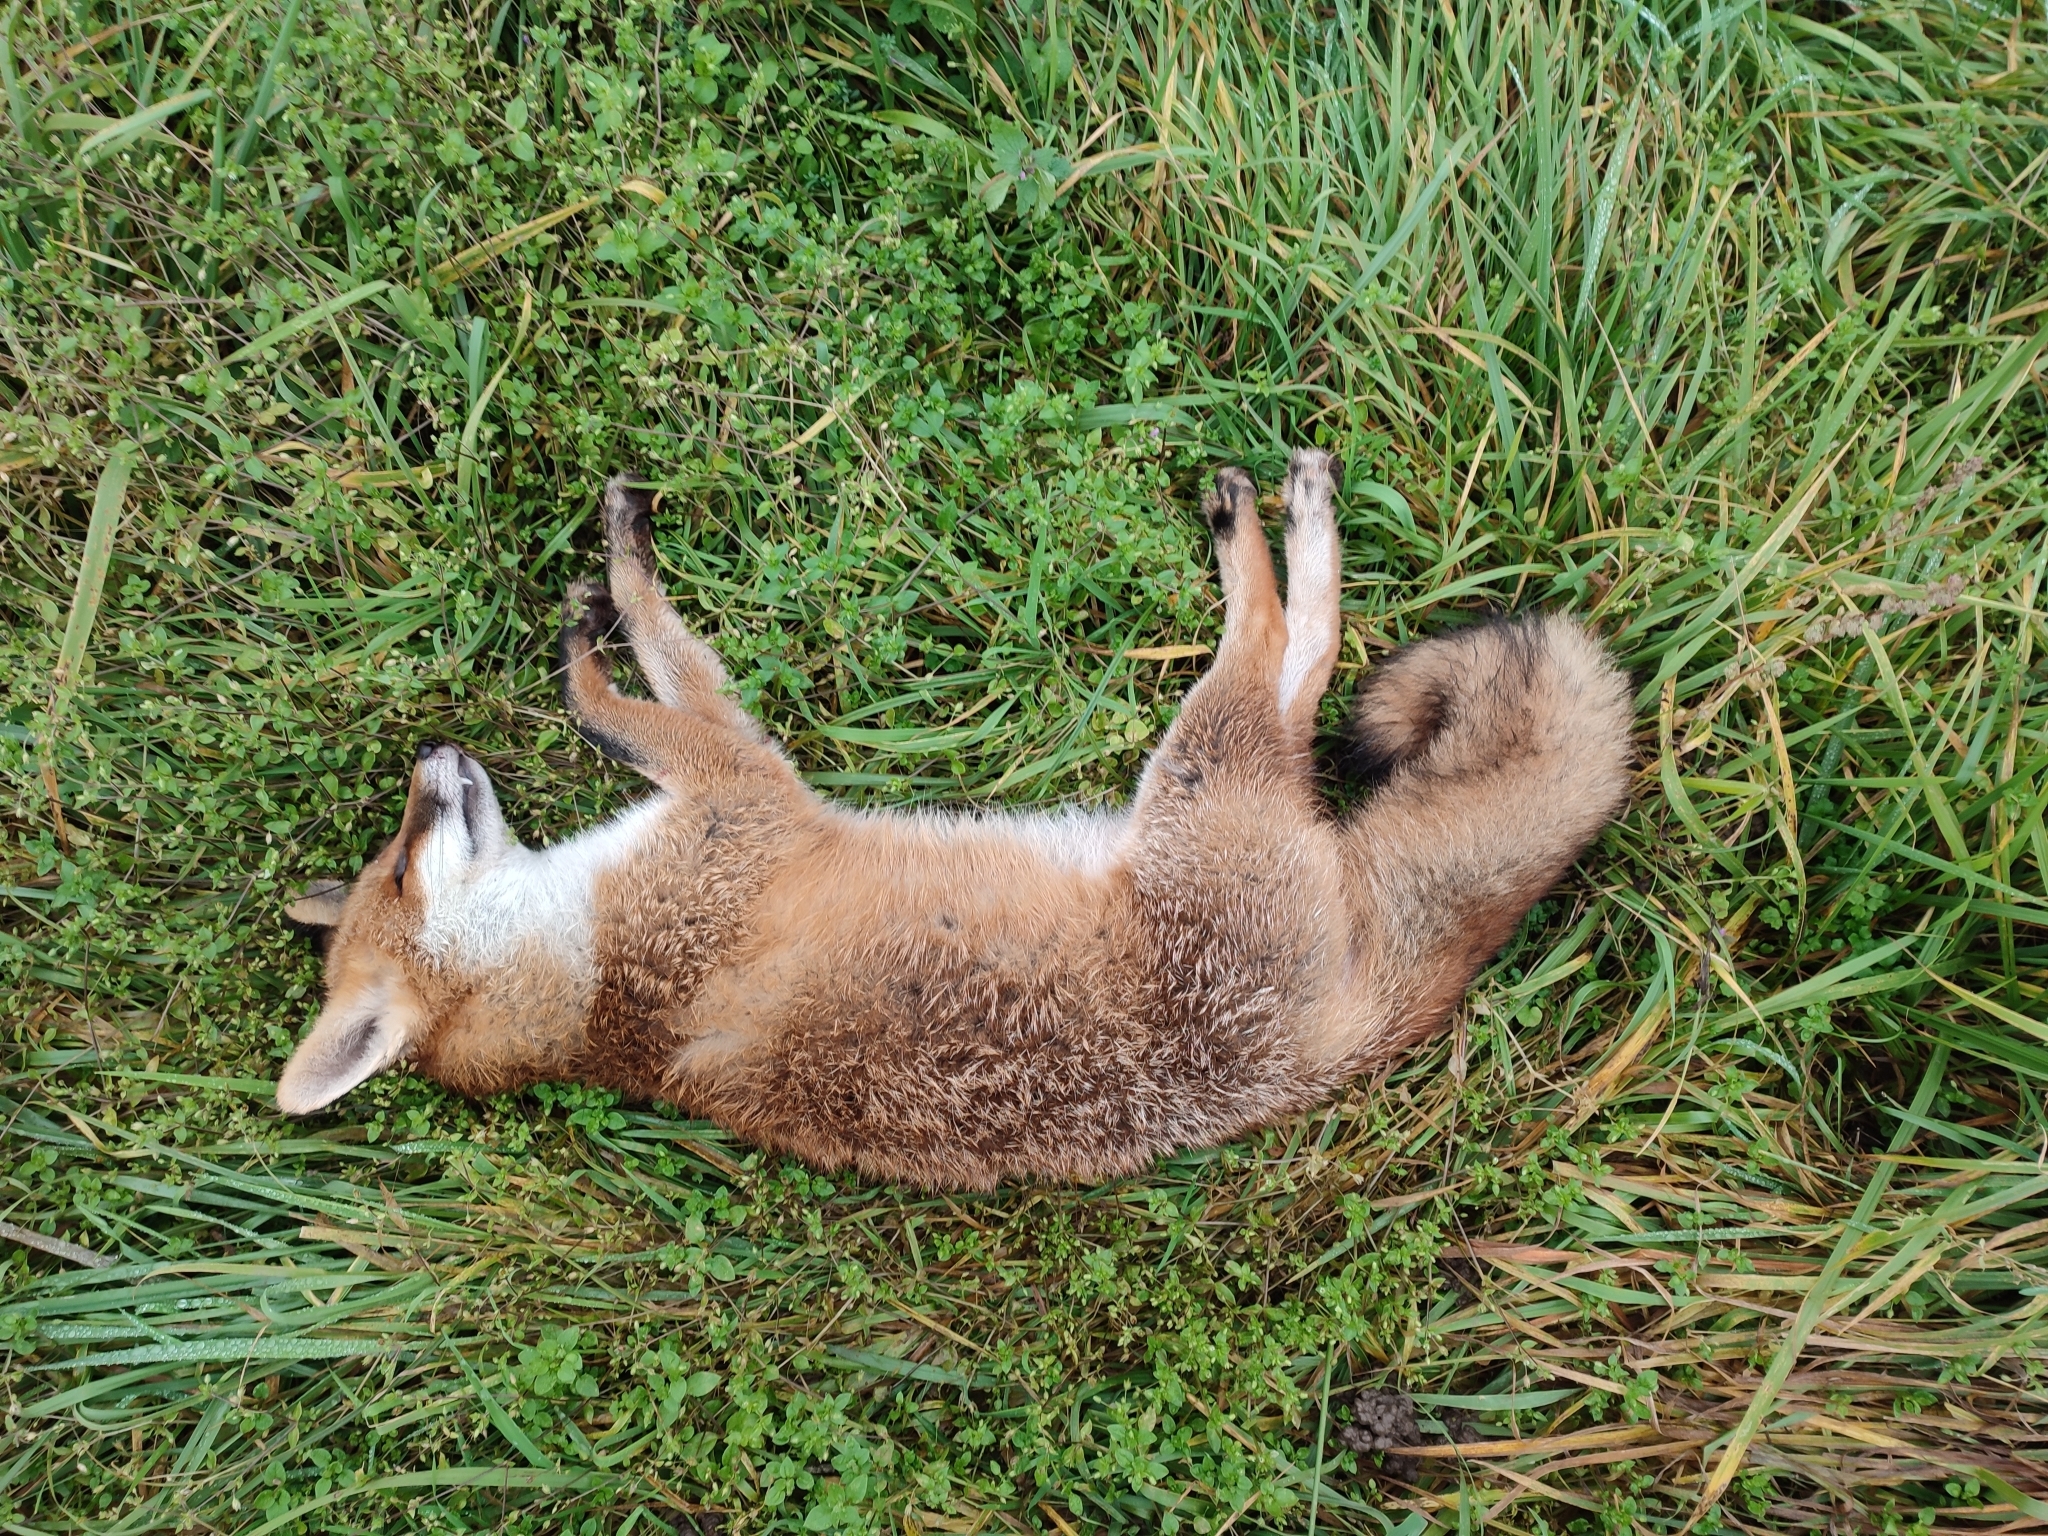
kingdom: Animalia
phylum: Chordata
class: Mammalia
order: Carnivora
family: Canidae
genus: Vulpes
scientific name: Vulpes vulpes
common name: Red fox
